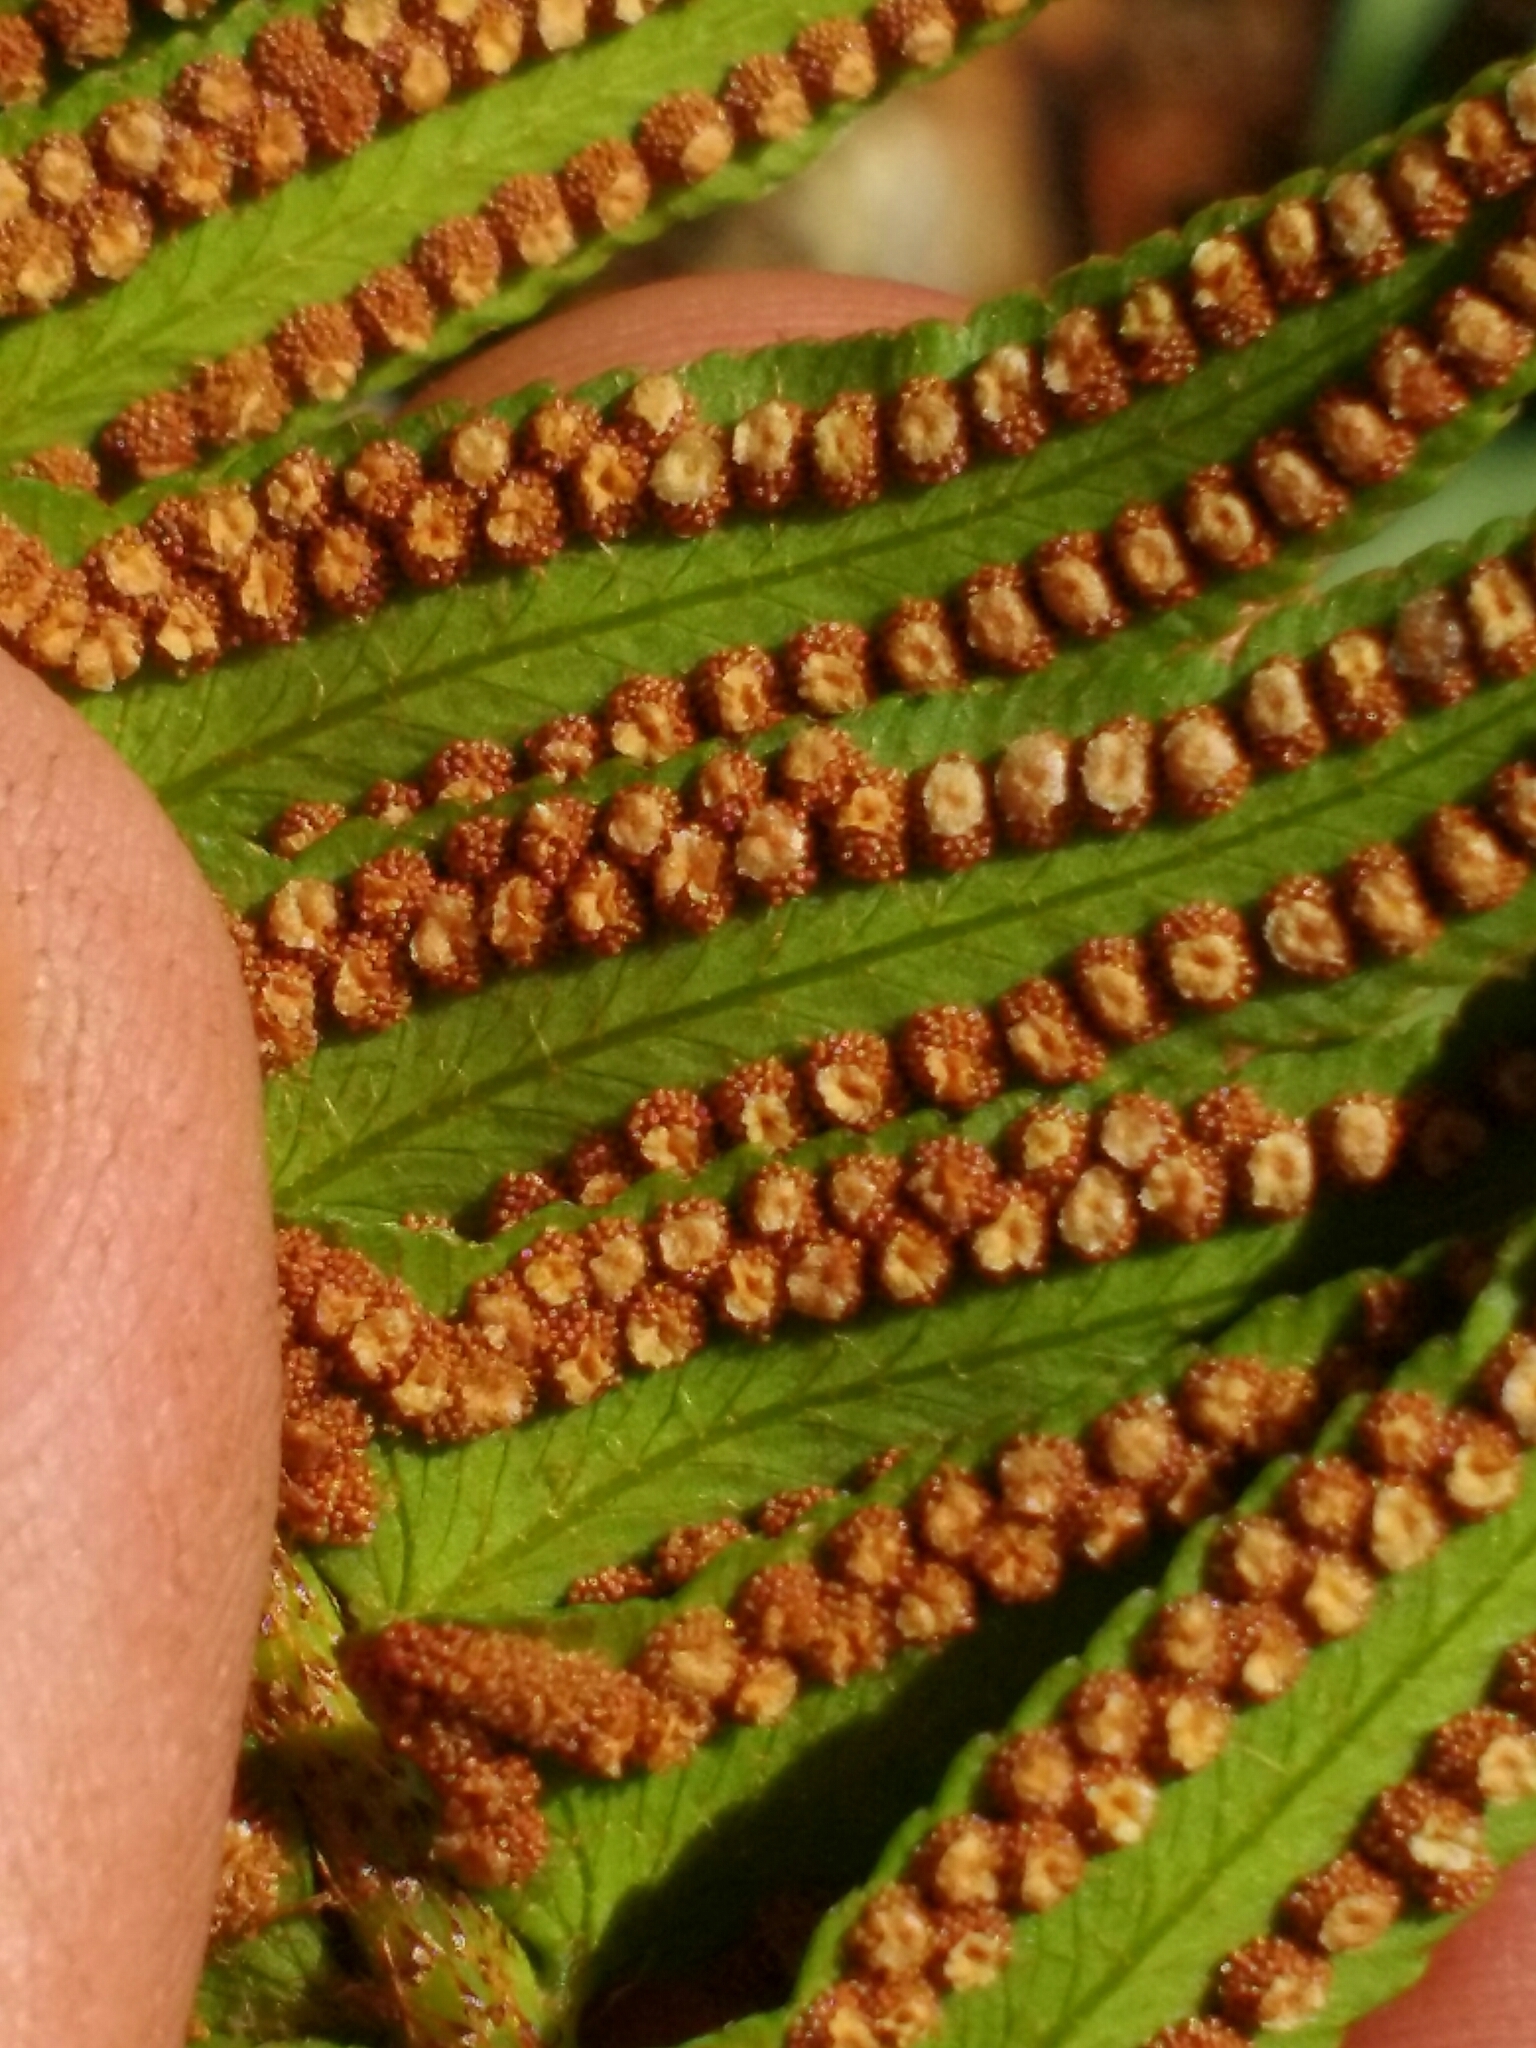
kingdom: Plantae
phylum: Tracheophyta
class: Polypodiopsida
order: Polypodiales
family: Dryopteridaceae
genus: Polystichum
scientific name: Polystichum imbricans
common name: Dwarf western sword fern
